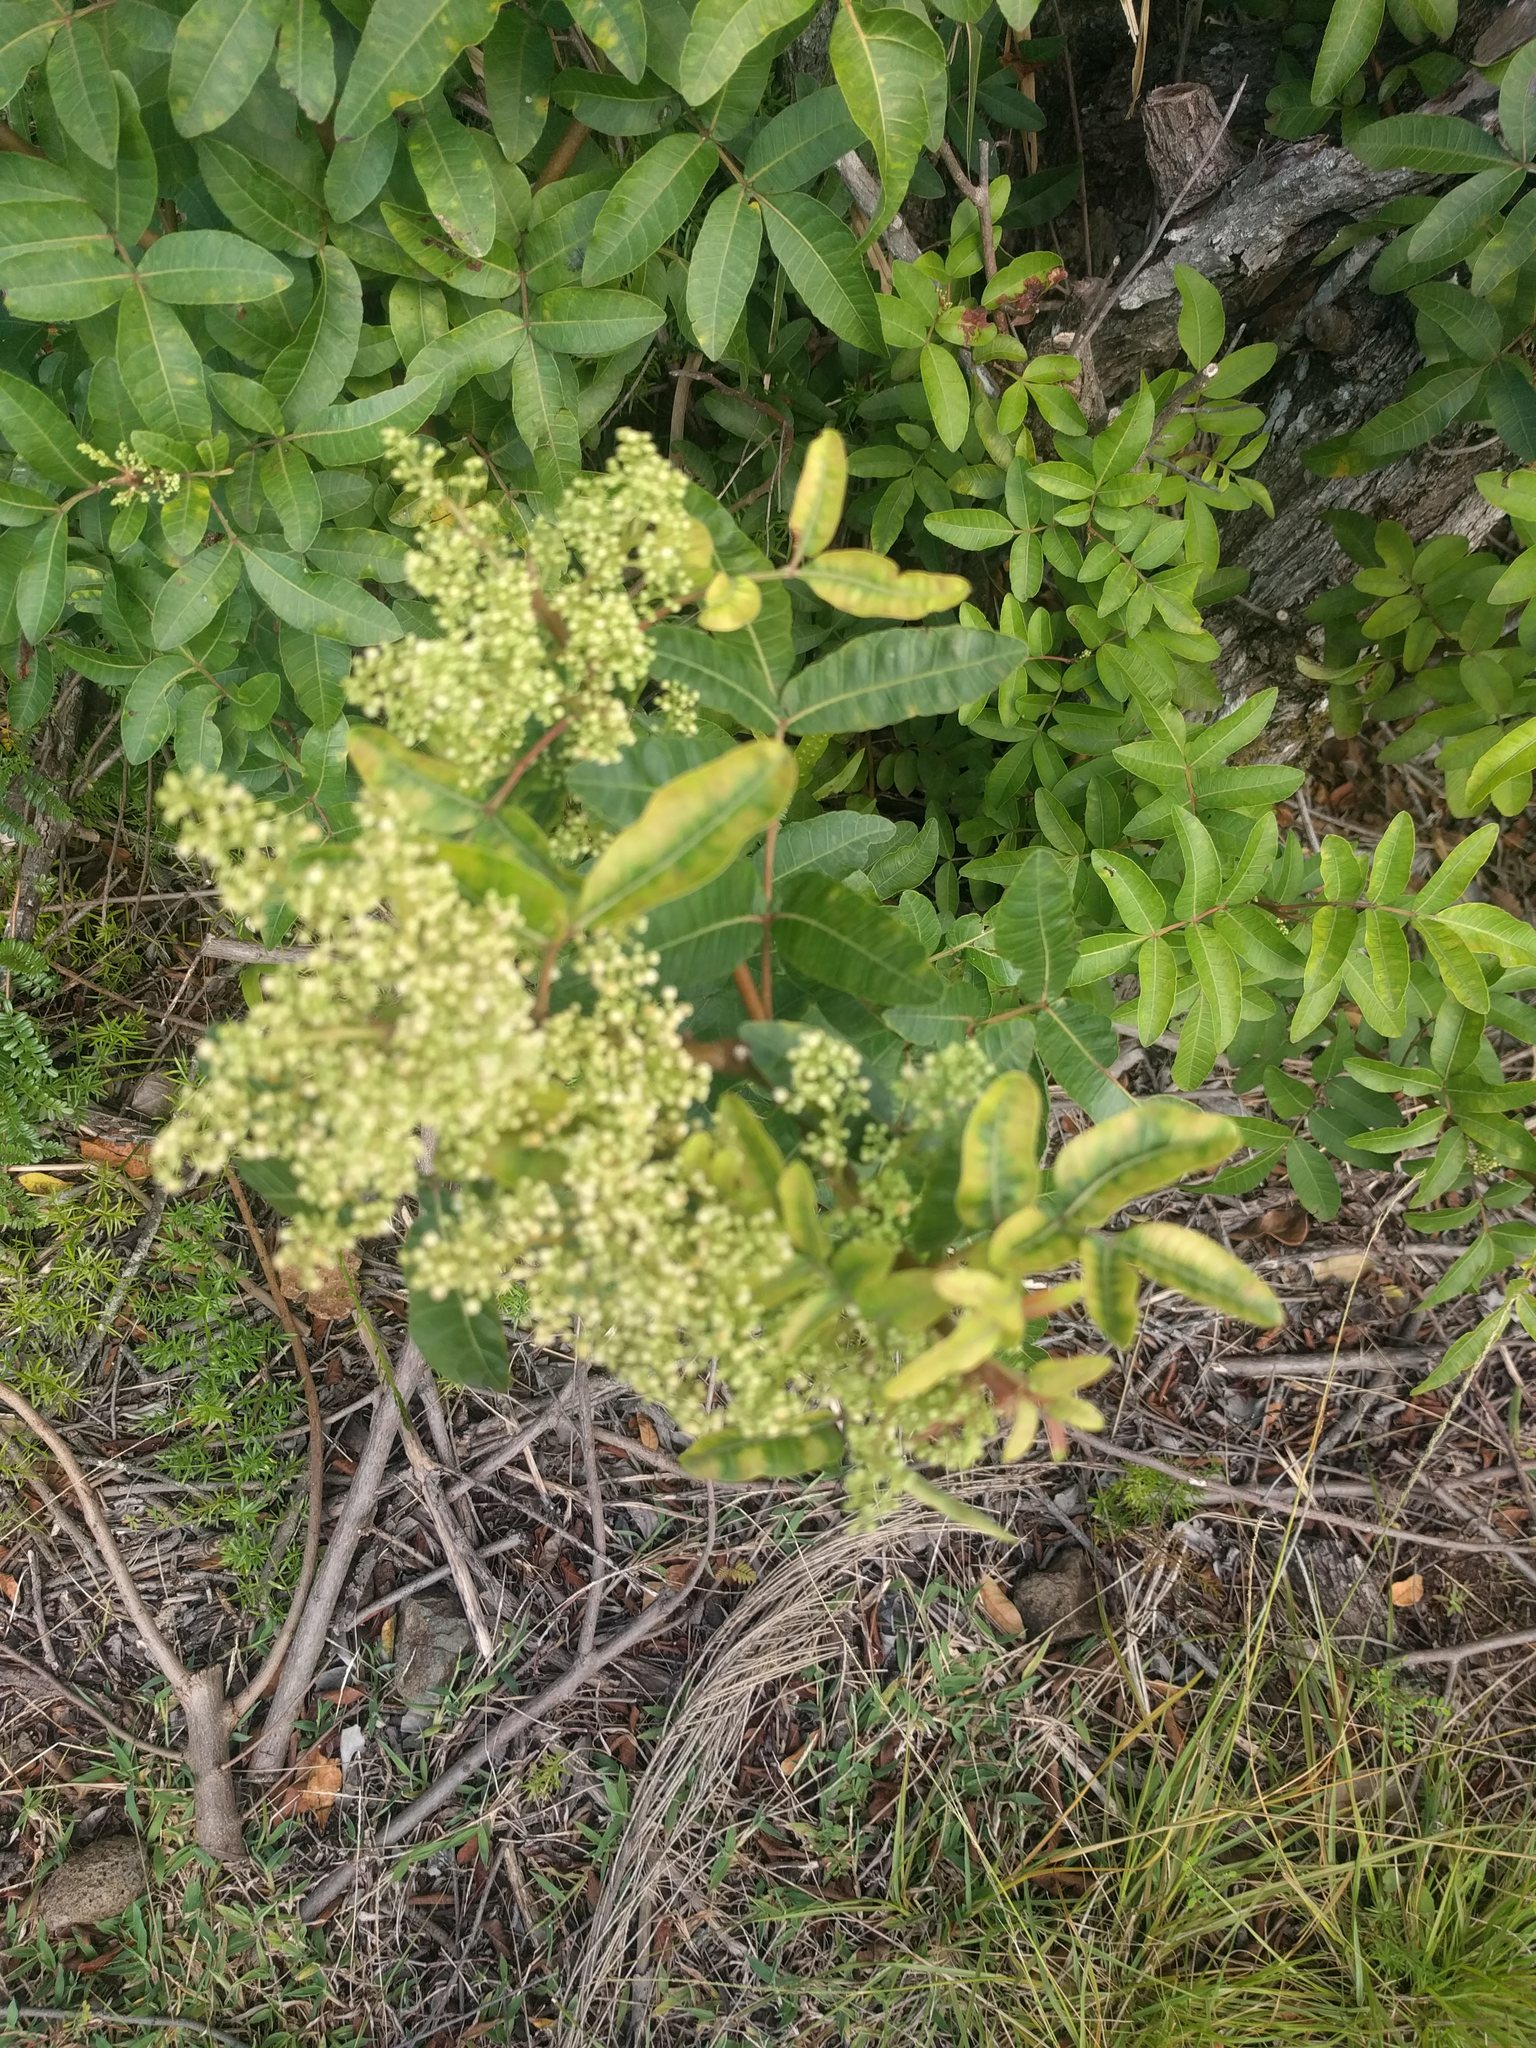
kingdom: Plantae
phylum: Tracheophyta
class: Magnoliopsida
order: Sapindales
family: Anacardiaceae
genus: Schinus
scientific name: Schinus terebinthifolia
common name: Brazilian peppertree
